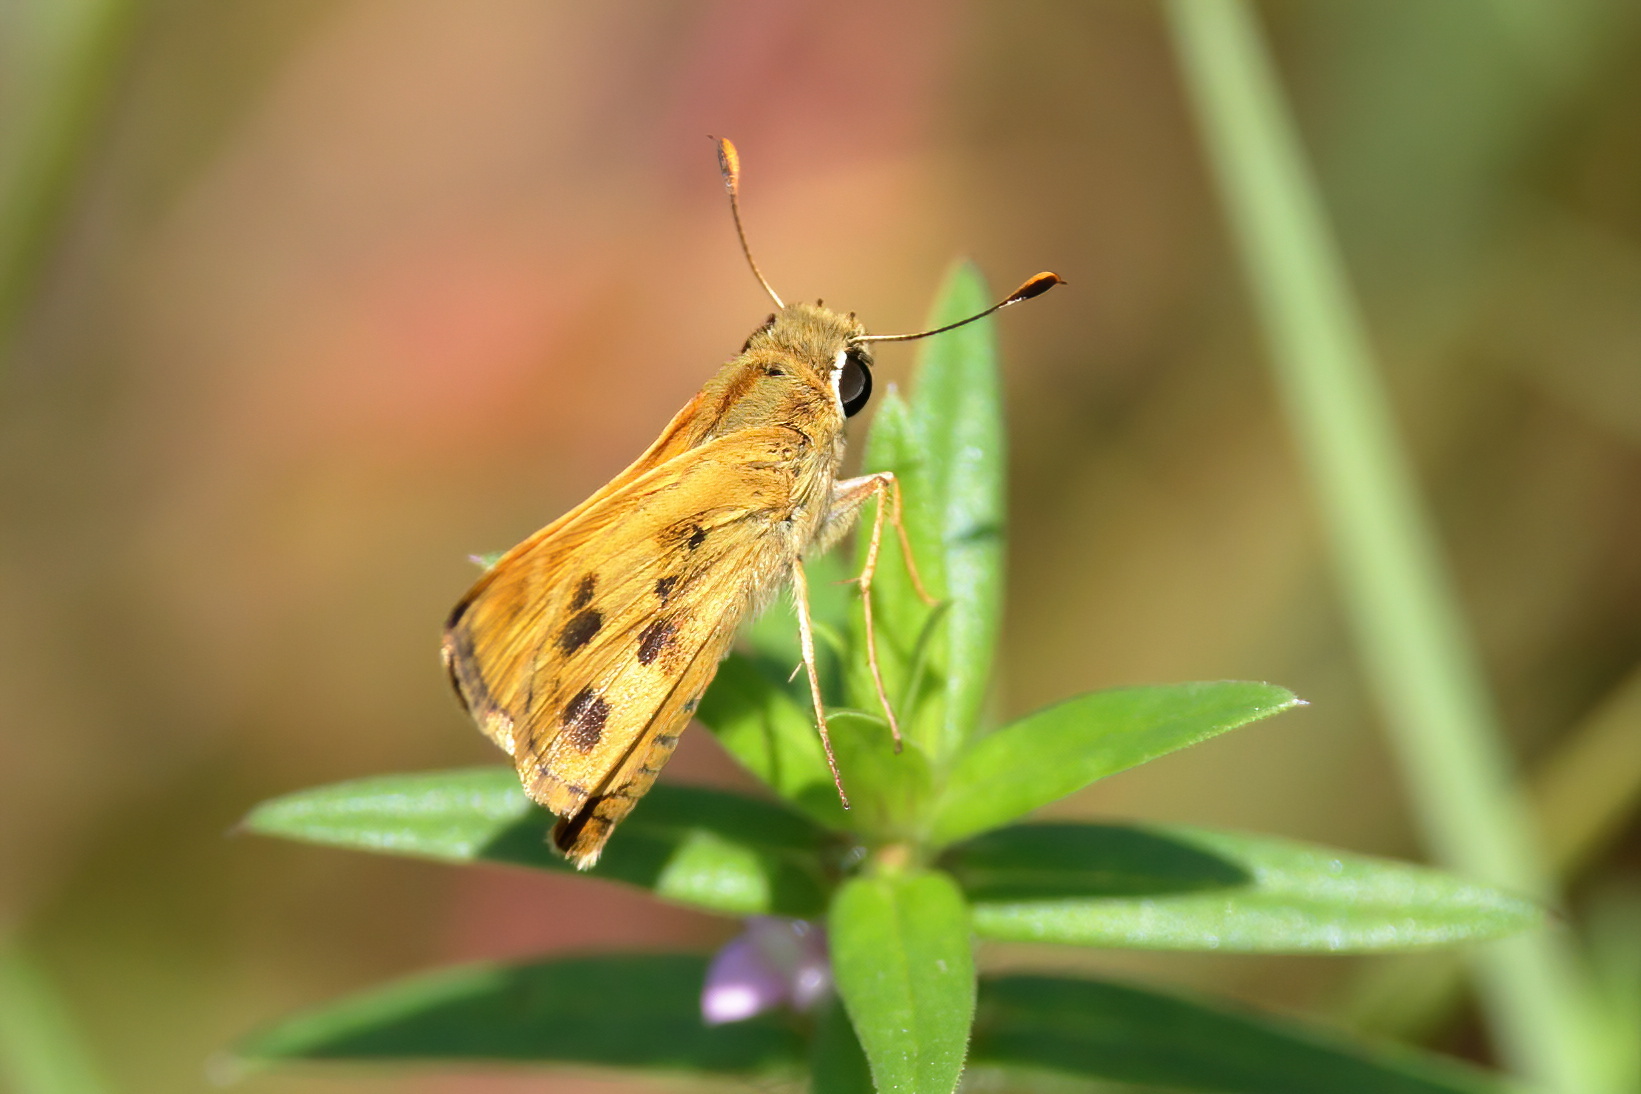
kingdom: Animalia
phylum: Arthropoda
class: Insecta
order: Lepidoptera
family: Hesperiidae
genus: Polites
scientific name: Polites vibex
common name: Whirlabout
